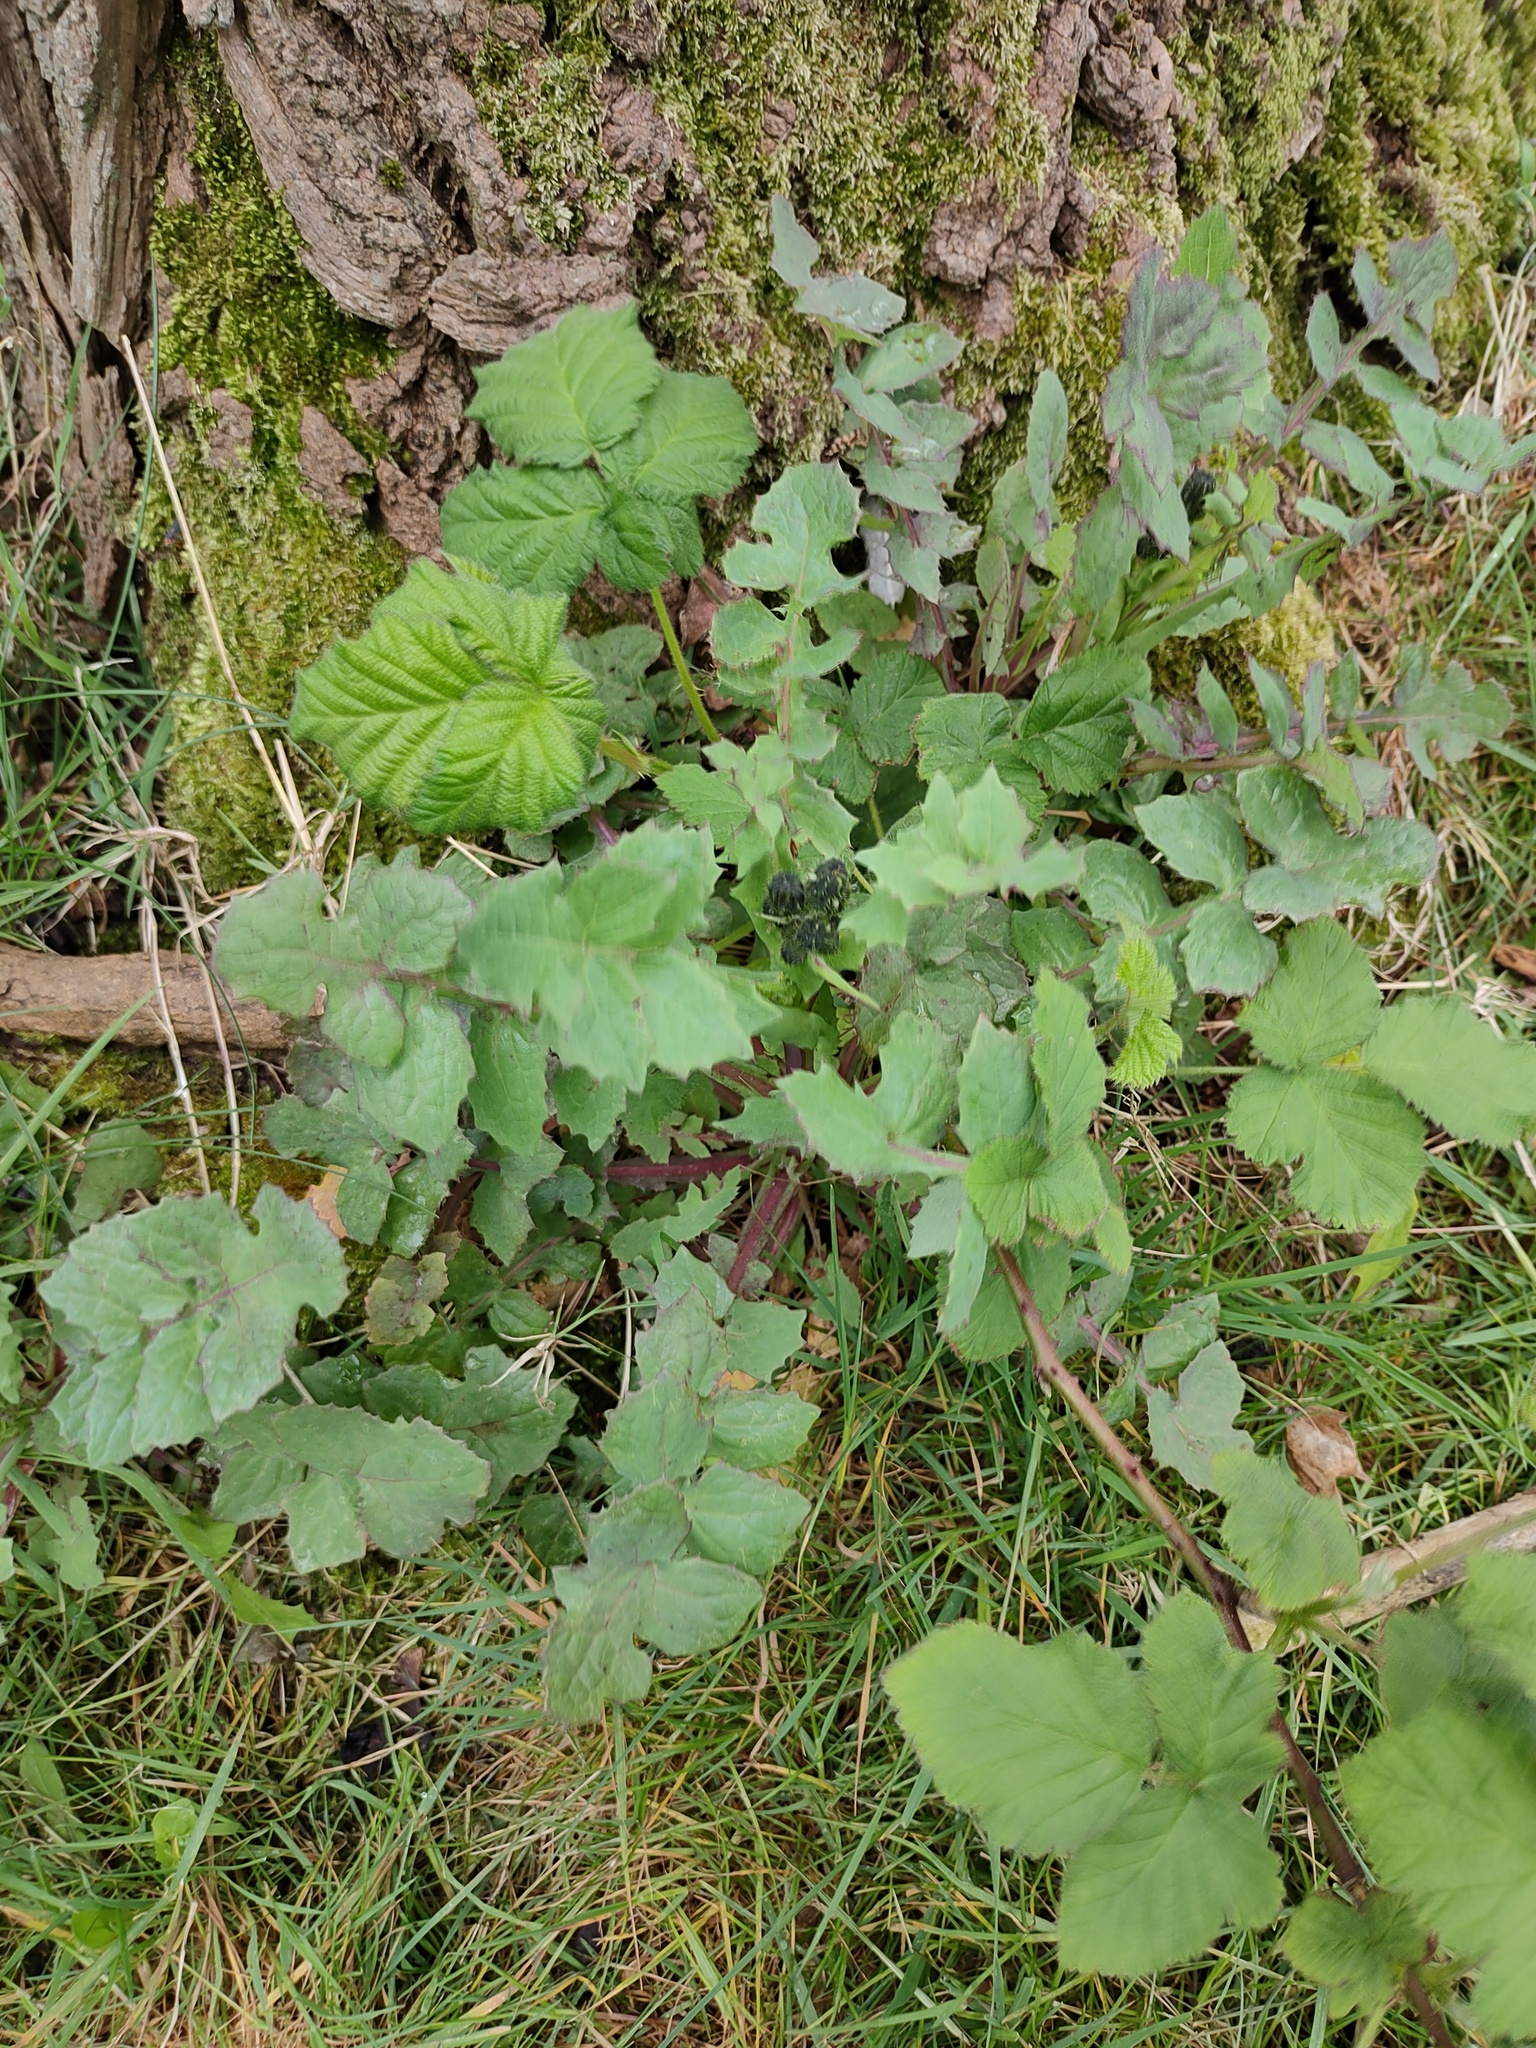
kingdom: Plantae
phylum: Tracheophyta
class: Magnoliopsida
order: Asterales
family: Asteraceae
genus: Sonchus
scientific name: Sonchus oleraceus
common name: Common sowthistle
